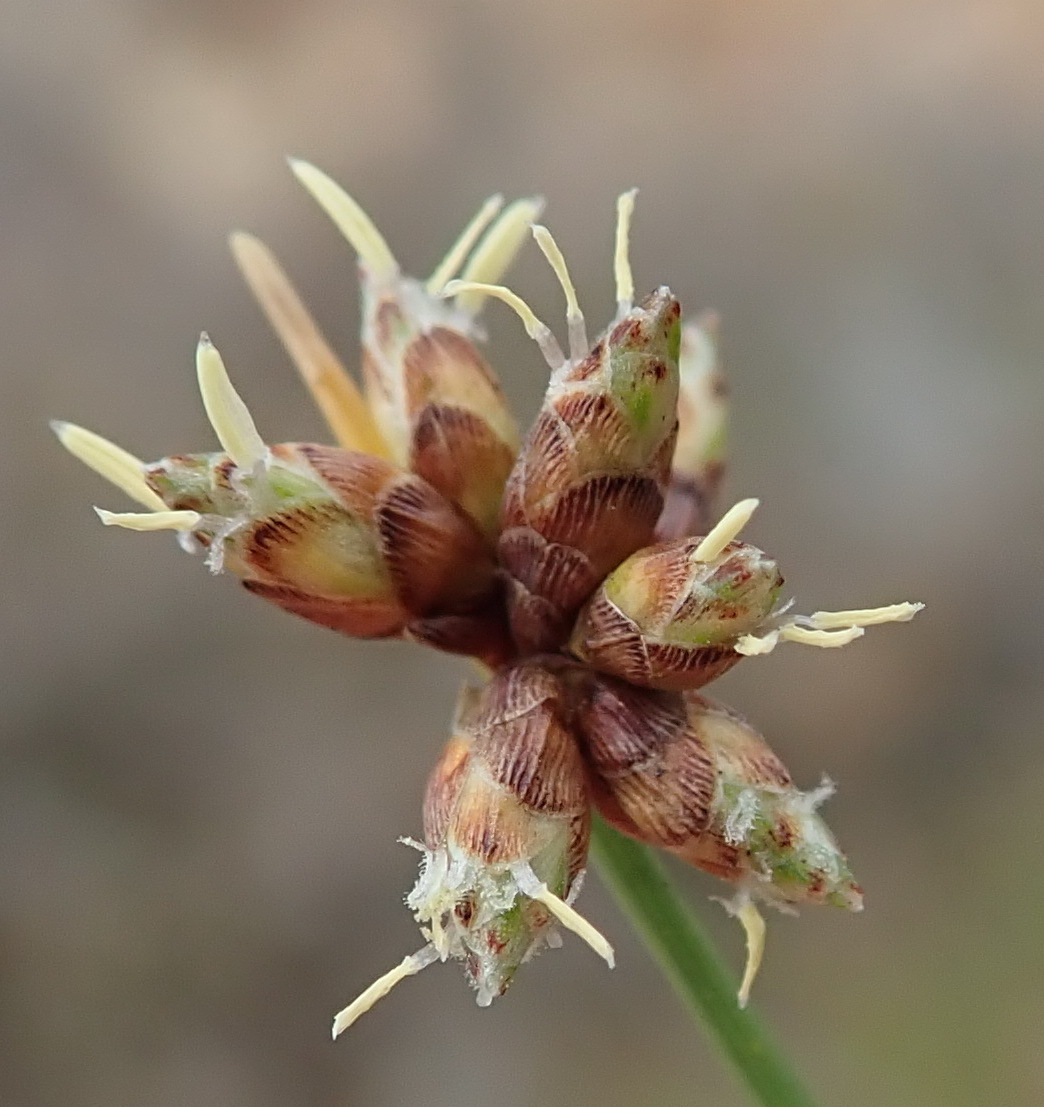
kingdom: Plantae
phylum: Tracheophyta
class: Liliopsida
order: Poales
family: Cyperaceae
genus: Ficinia
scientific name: Ficinia acuminata
